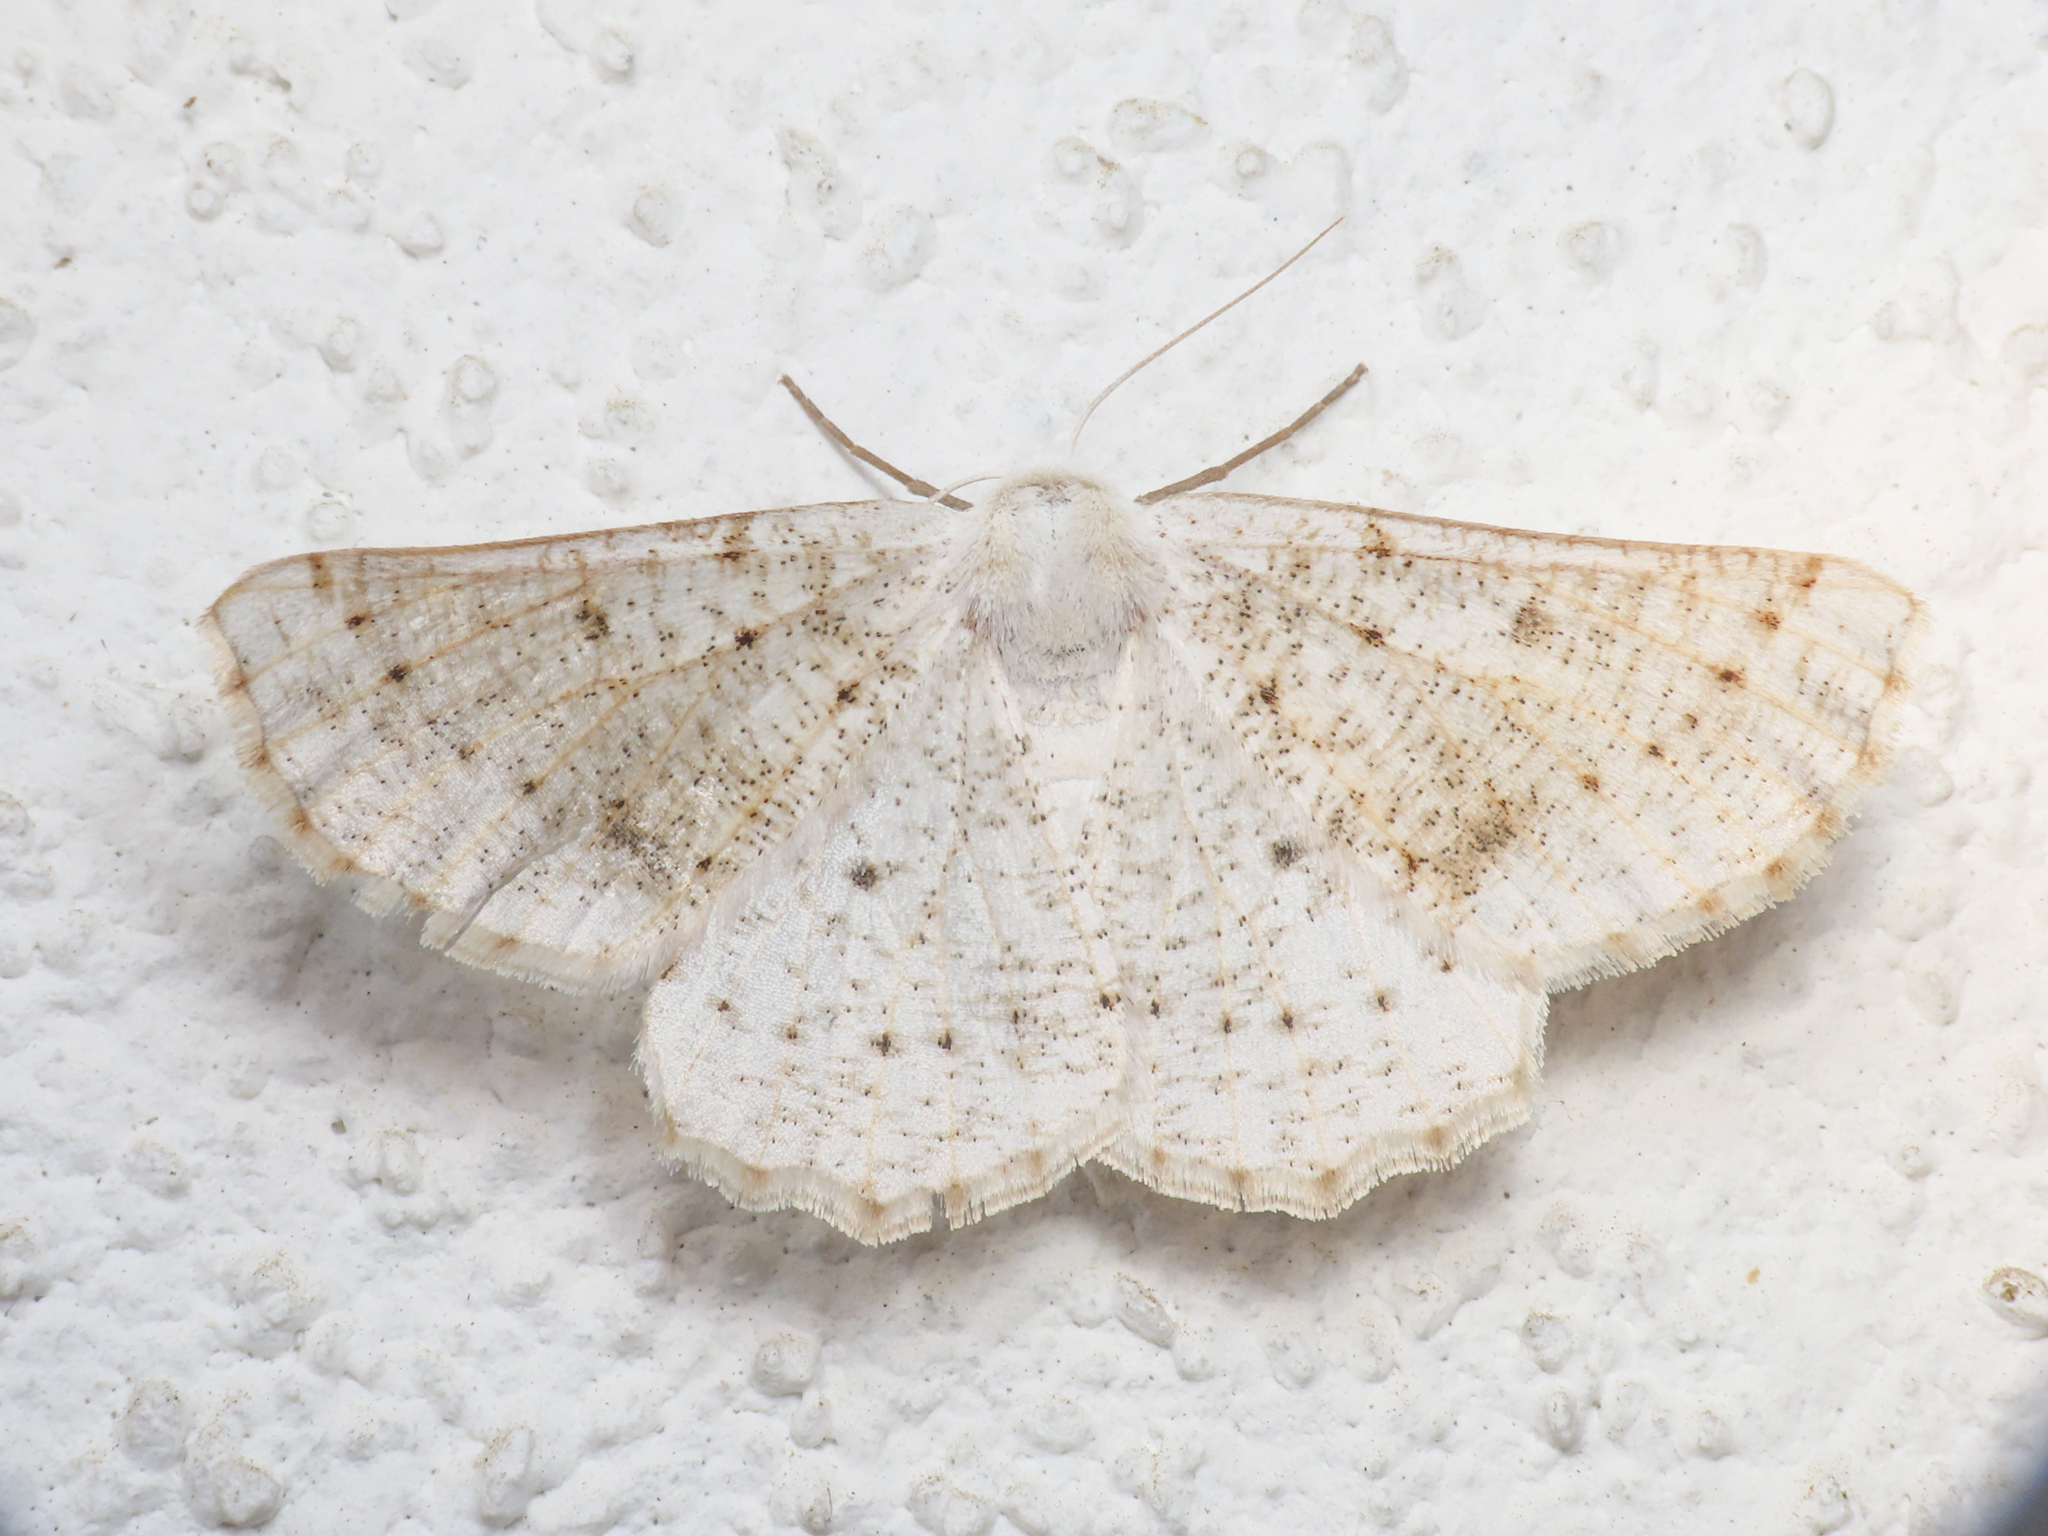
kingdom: Animalia
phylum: Arthropoda
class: Insecta
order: Lepidoptera
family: Geometridae
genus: Dyscia
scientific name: Dyscia govii
